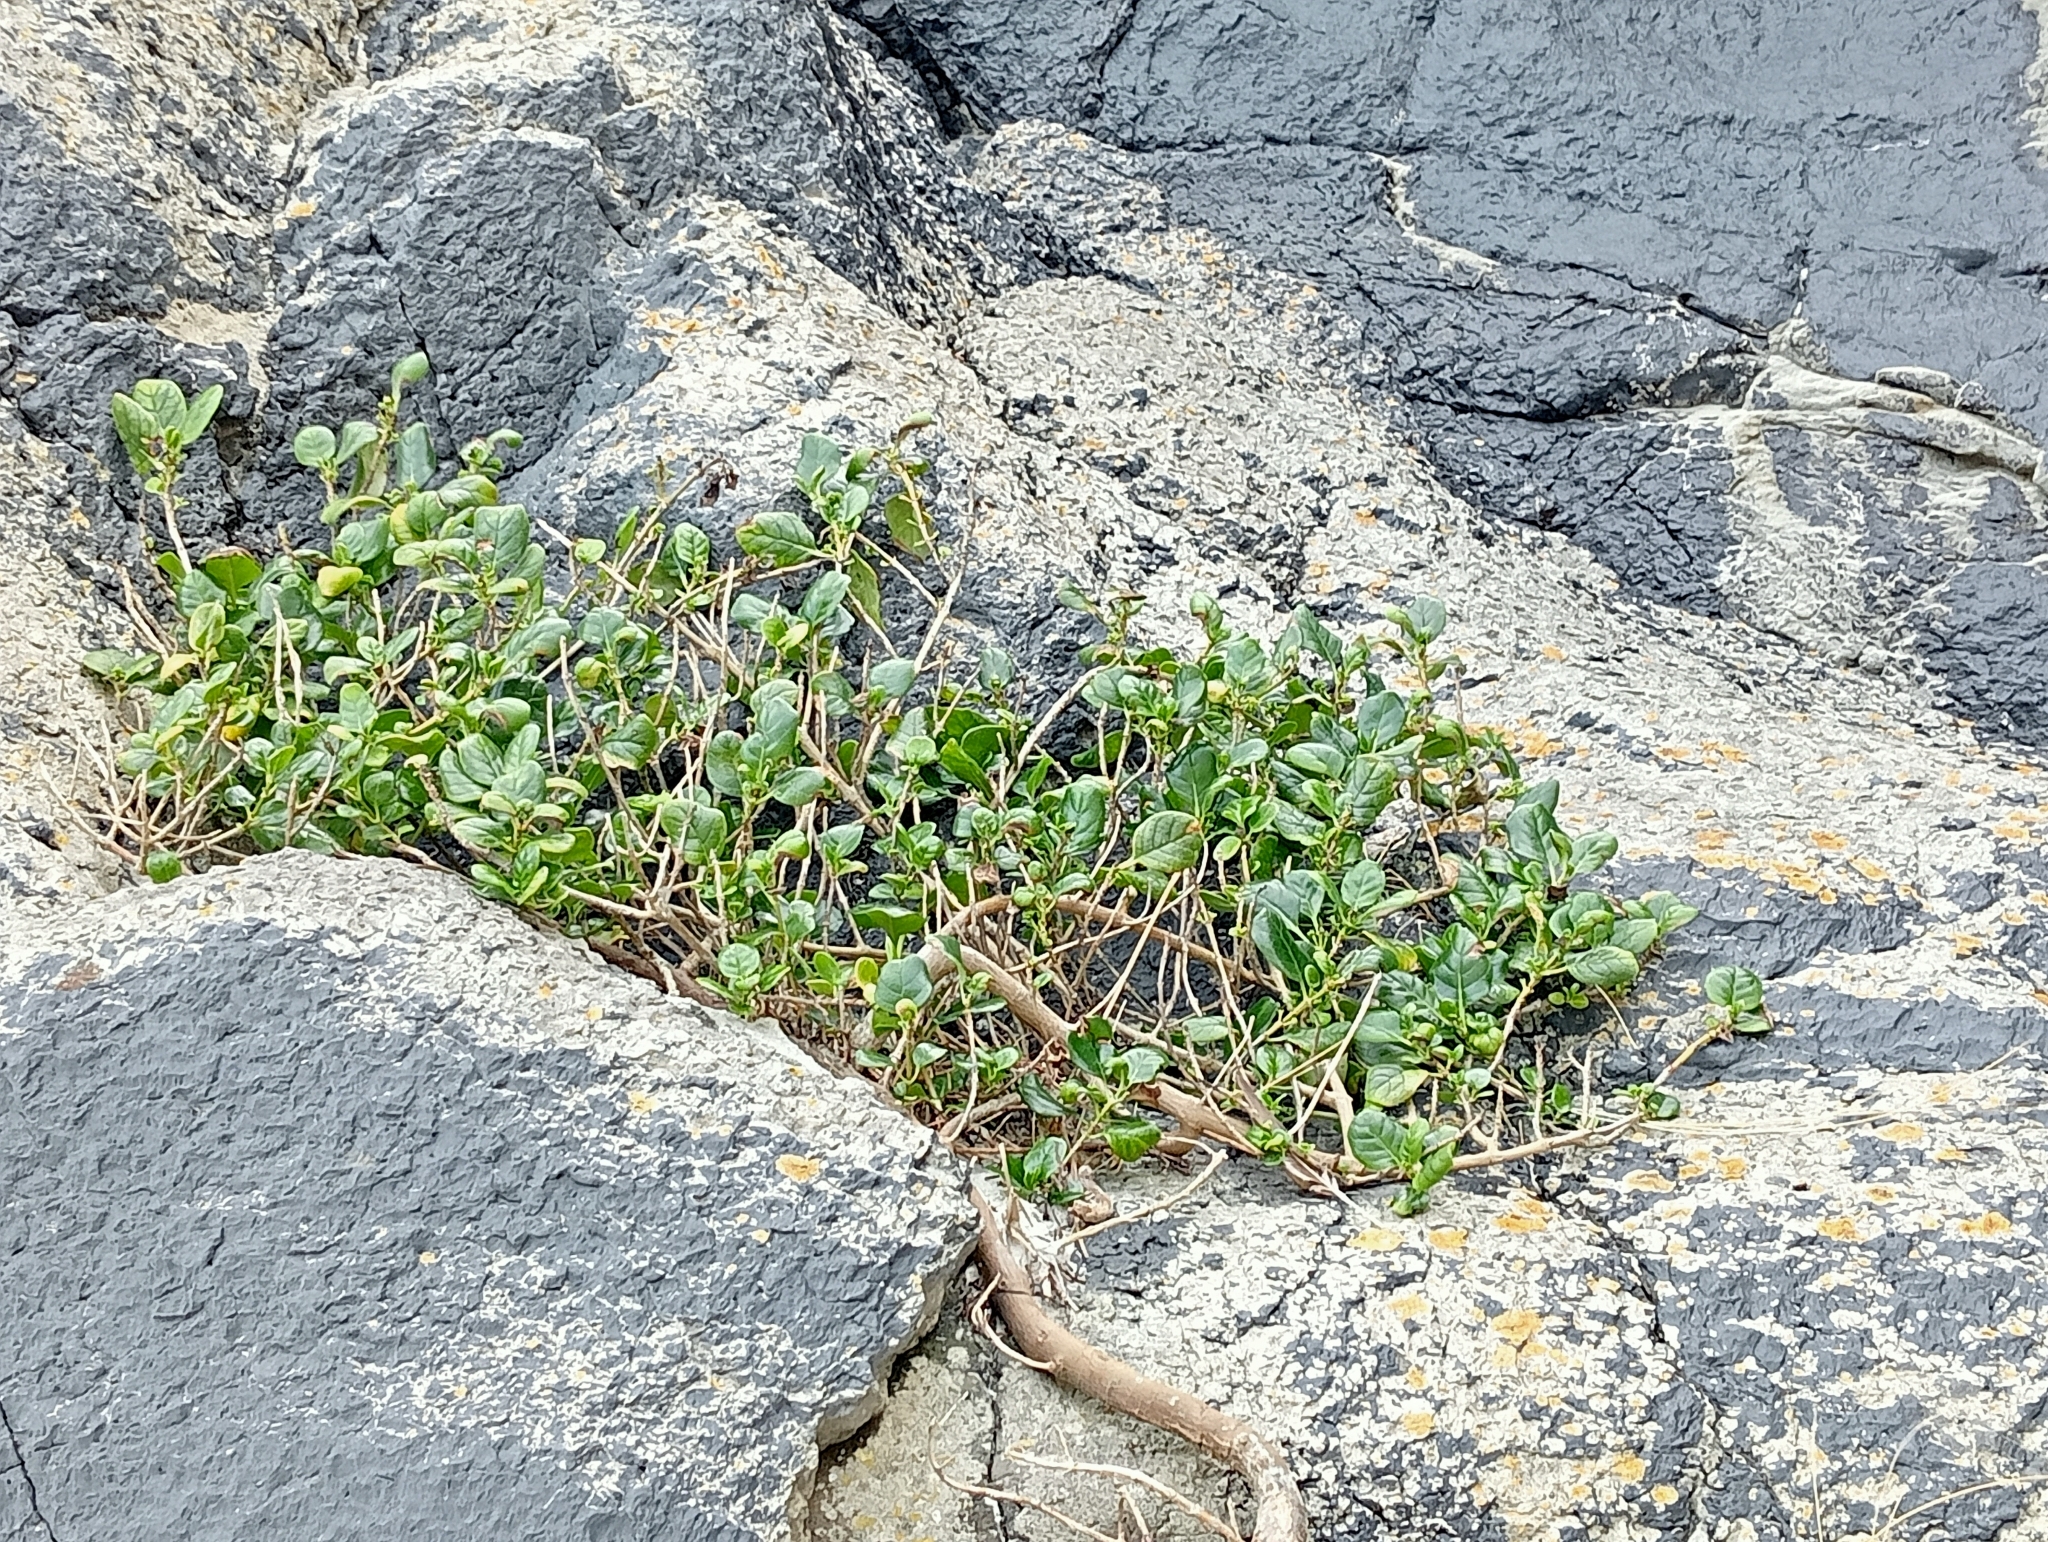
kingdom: Plantae
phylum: Tracheophyta
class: Magnoliopsida
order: Gentianales
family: Rubiaceae
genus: Coprosma
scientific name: Coprosma repens
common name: Tree bedstraw
